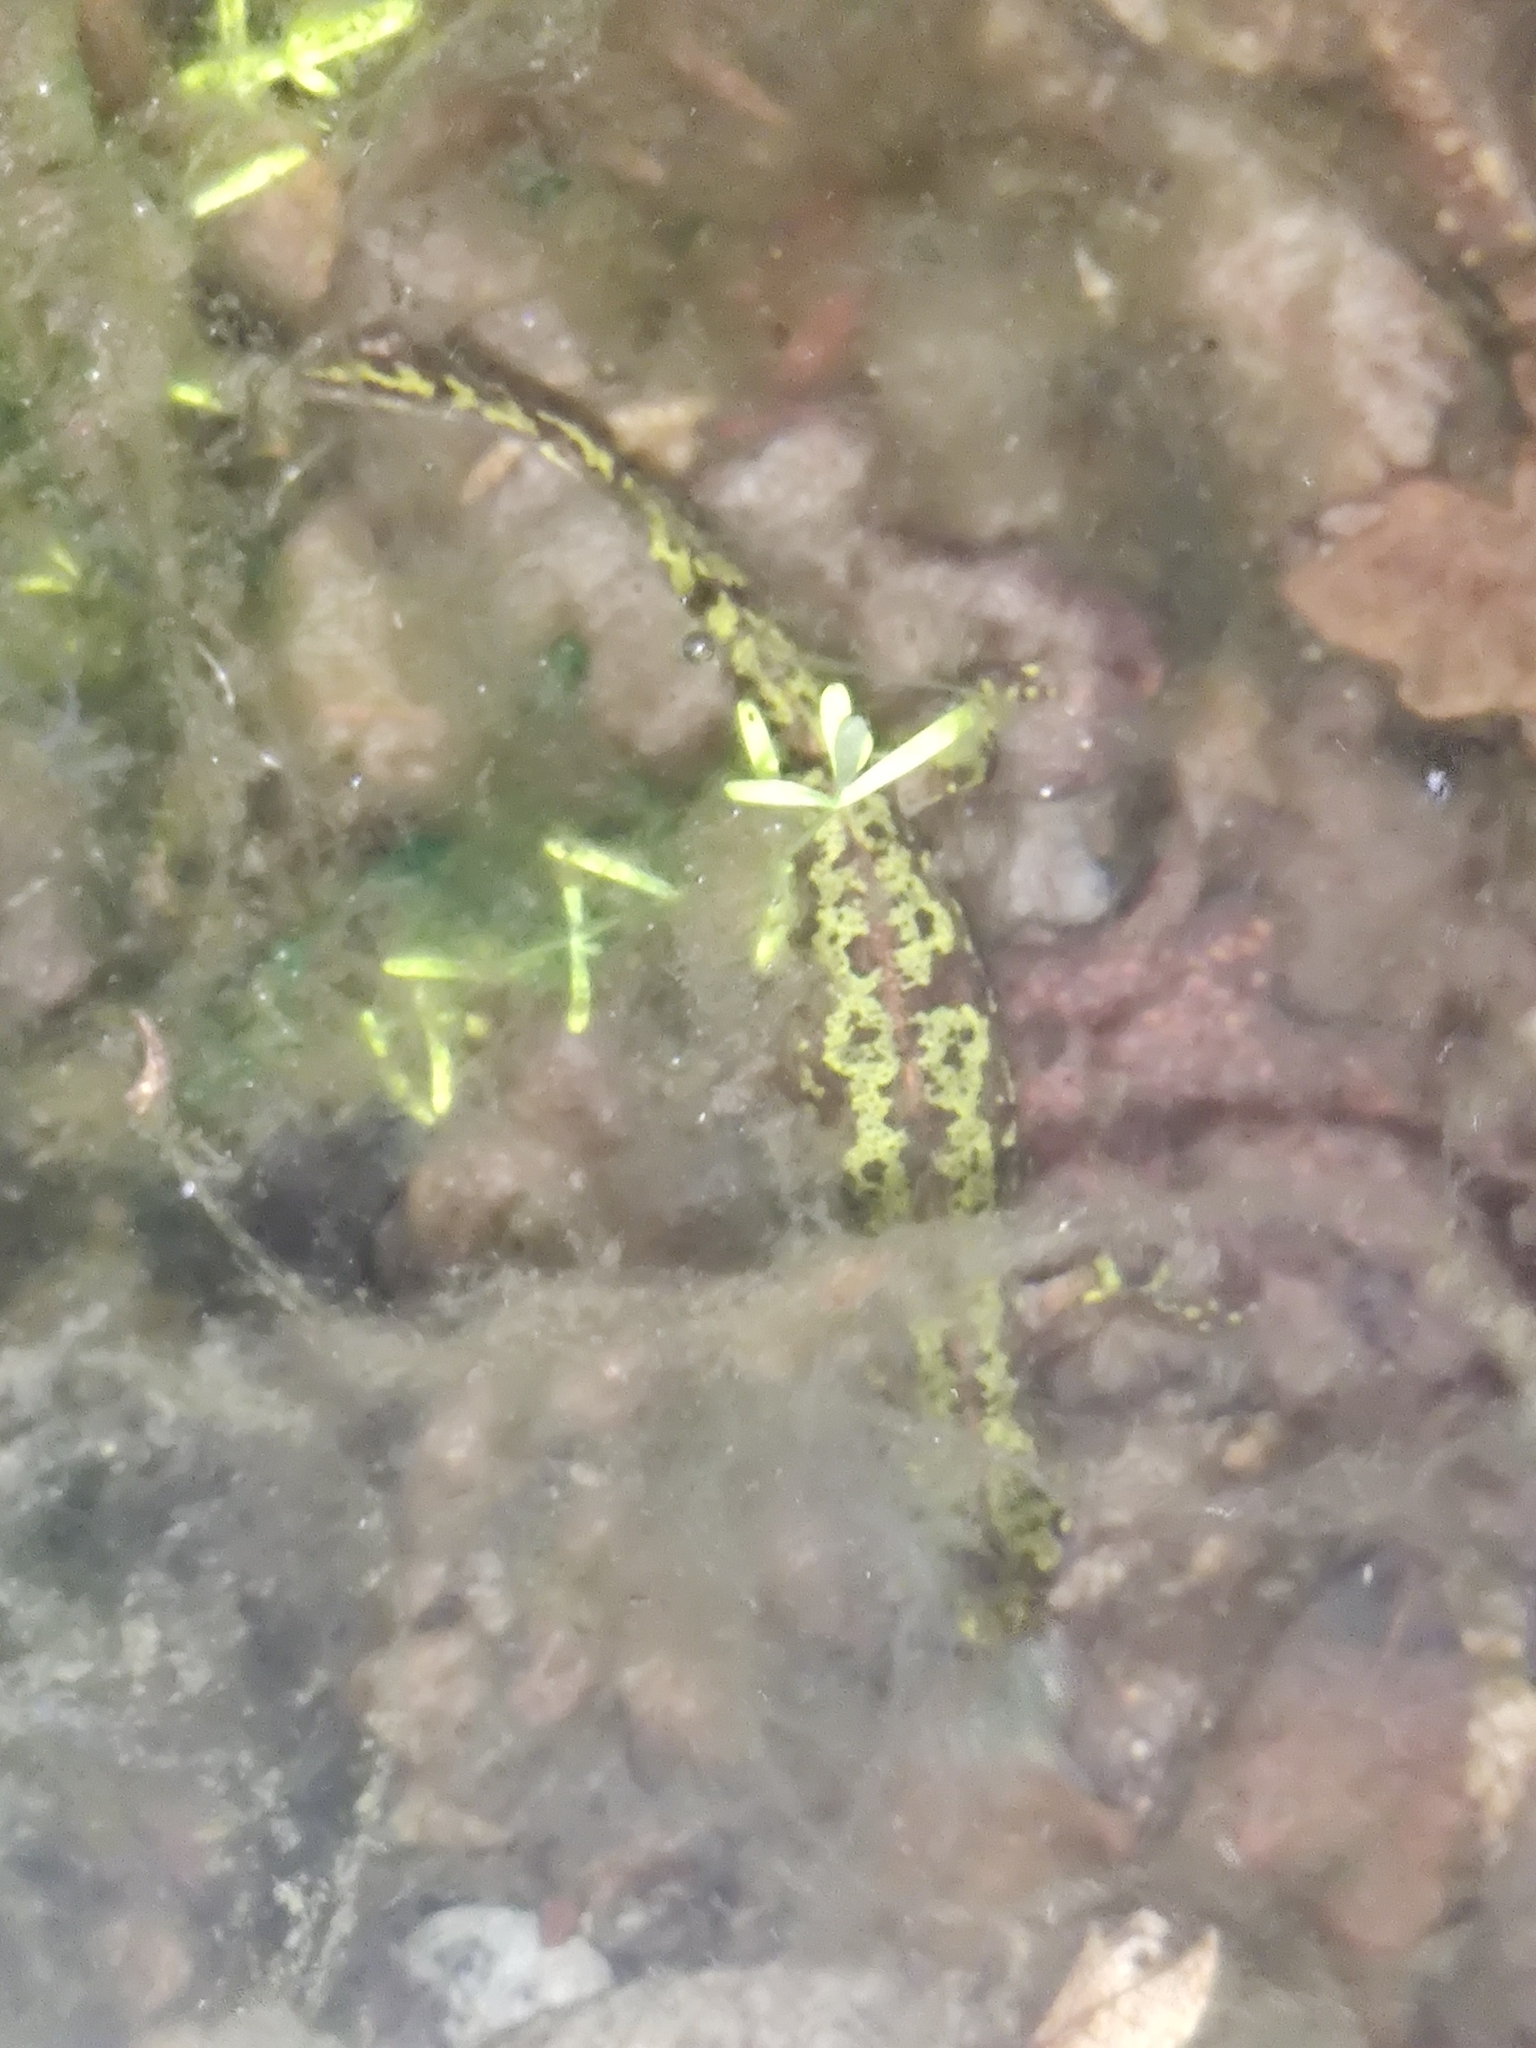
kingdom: Animalia
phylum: Chordata
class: Amphibia
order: Caudata
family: Salamandridae
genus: Triturus
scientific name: Triturus marmoratus
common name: Marbled newt
